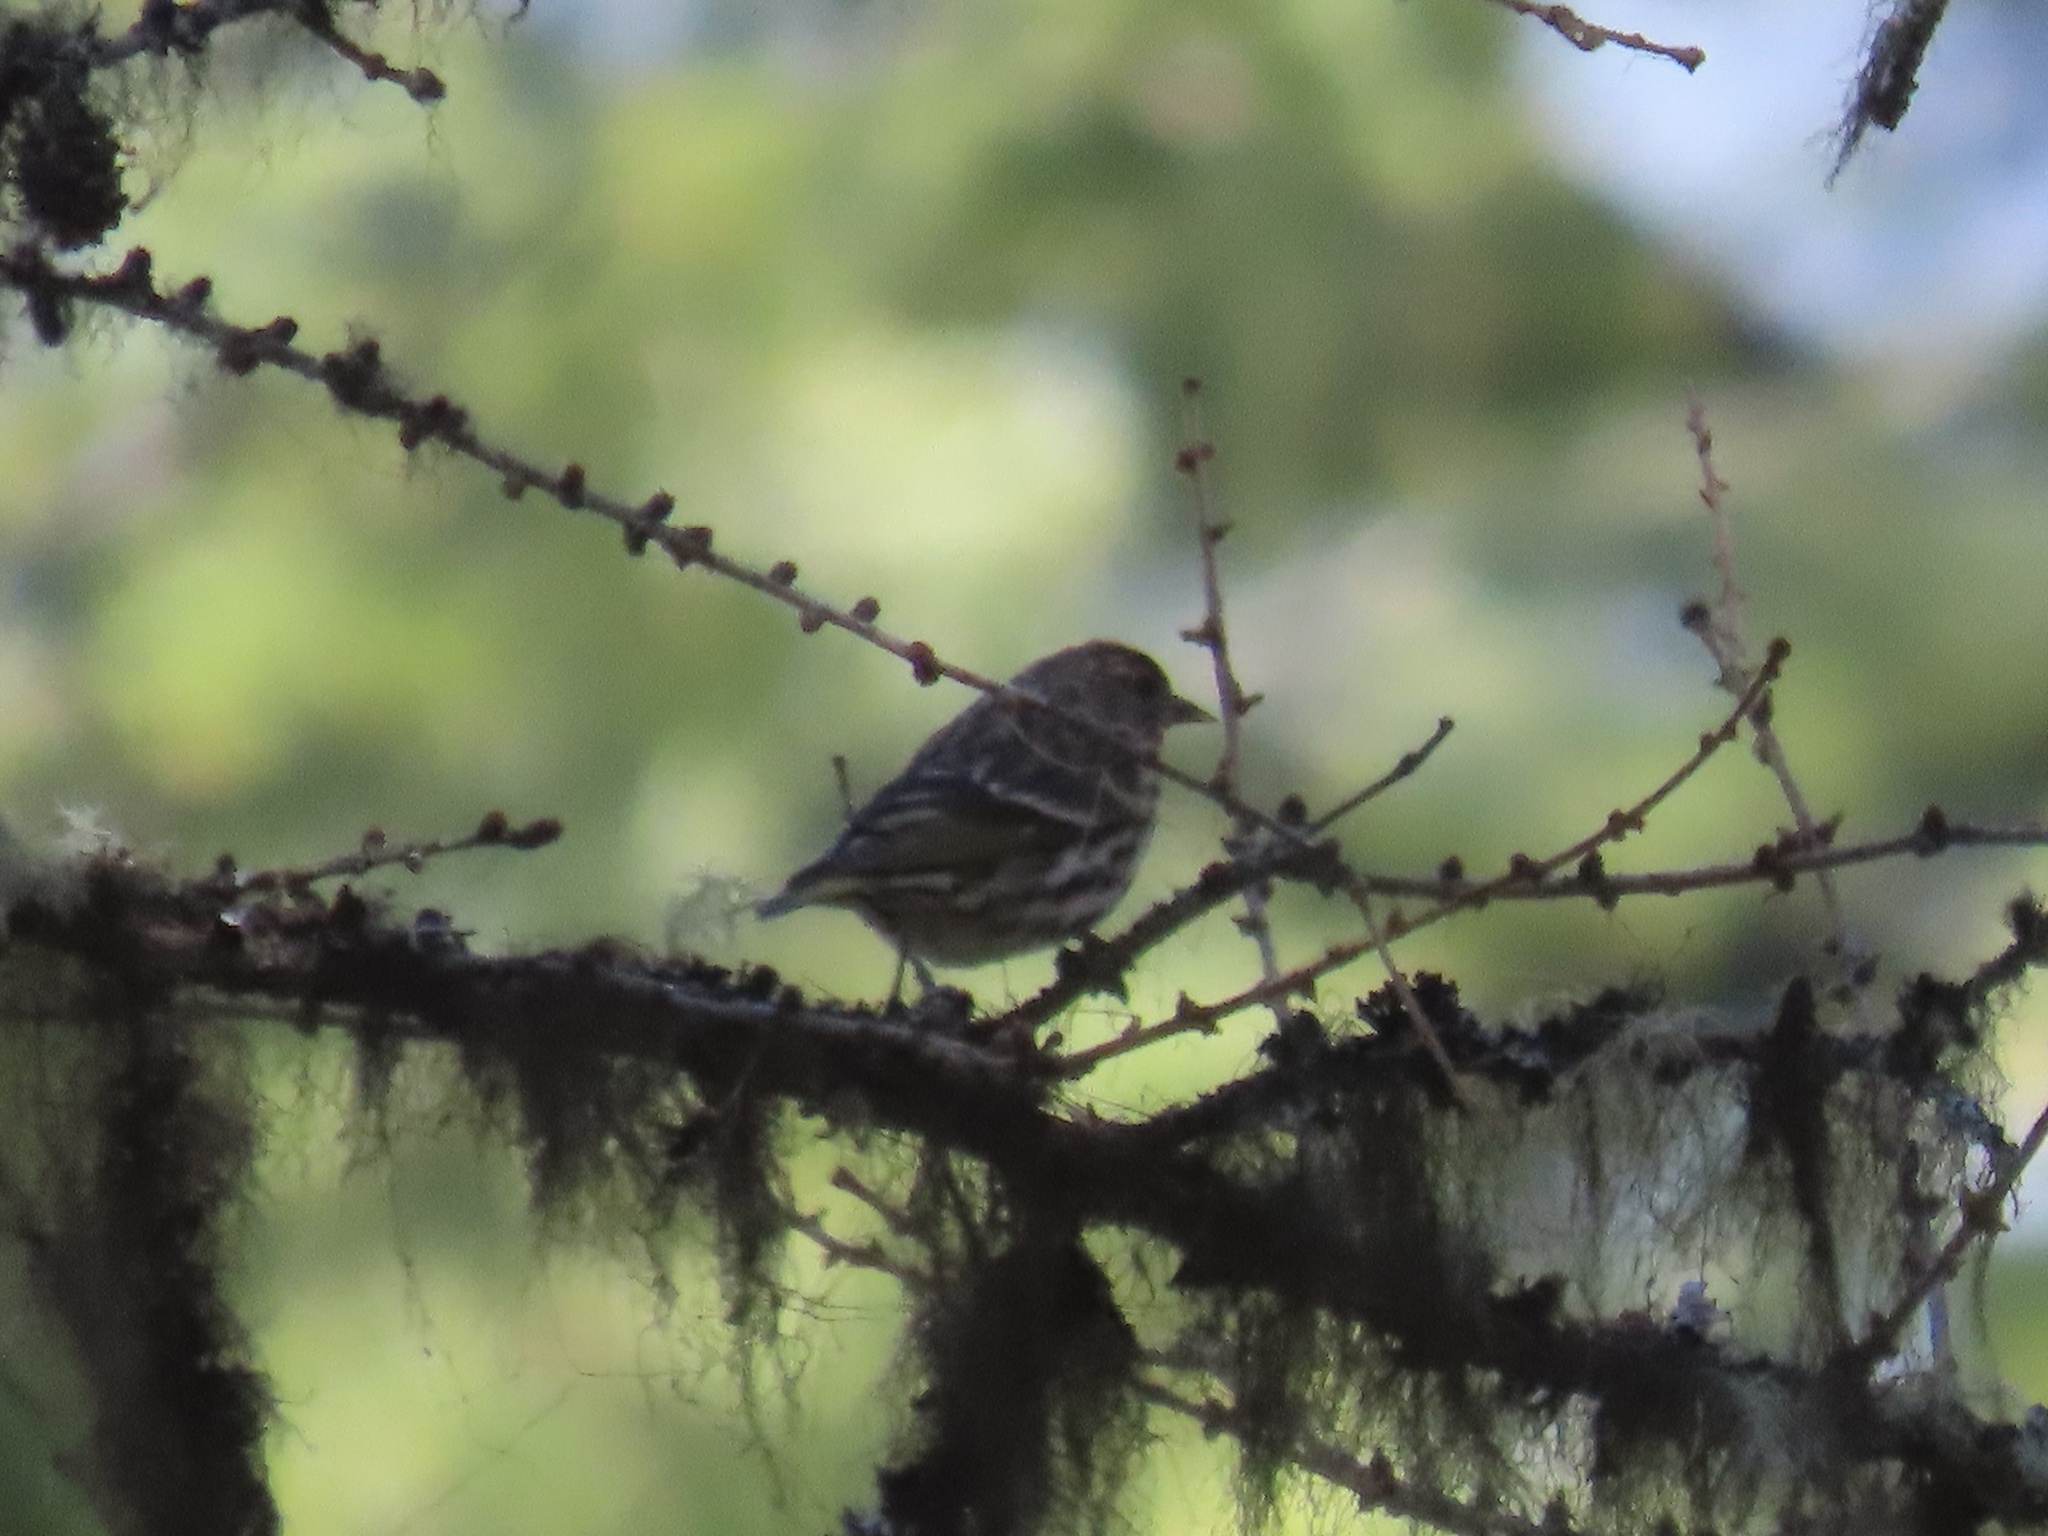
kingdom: Animalia
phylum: Chordata
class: Aves
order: Passeriformes
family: Fringillidae
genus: Spinus
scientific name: Spinus pinus
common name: Pine siskin
